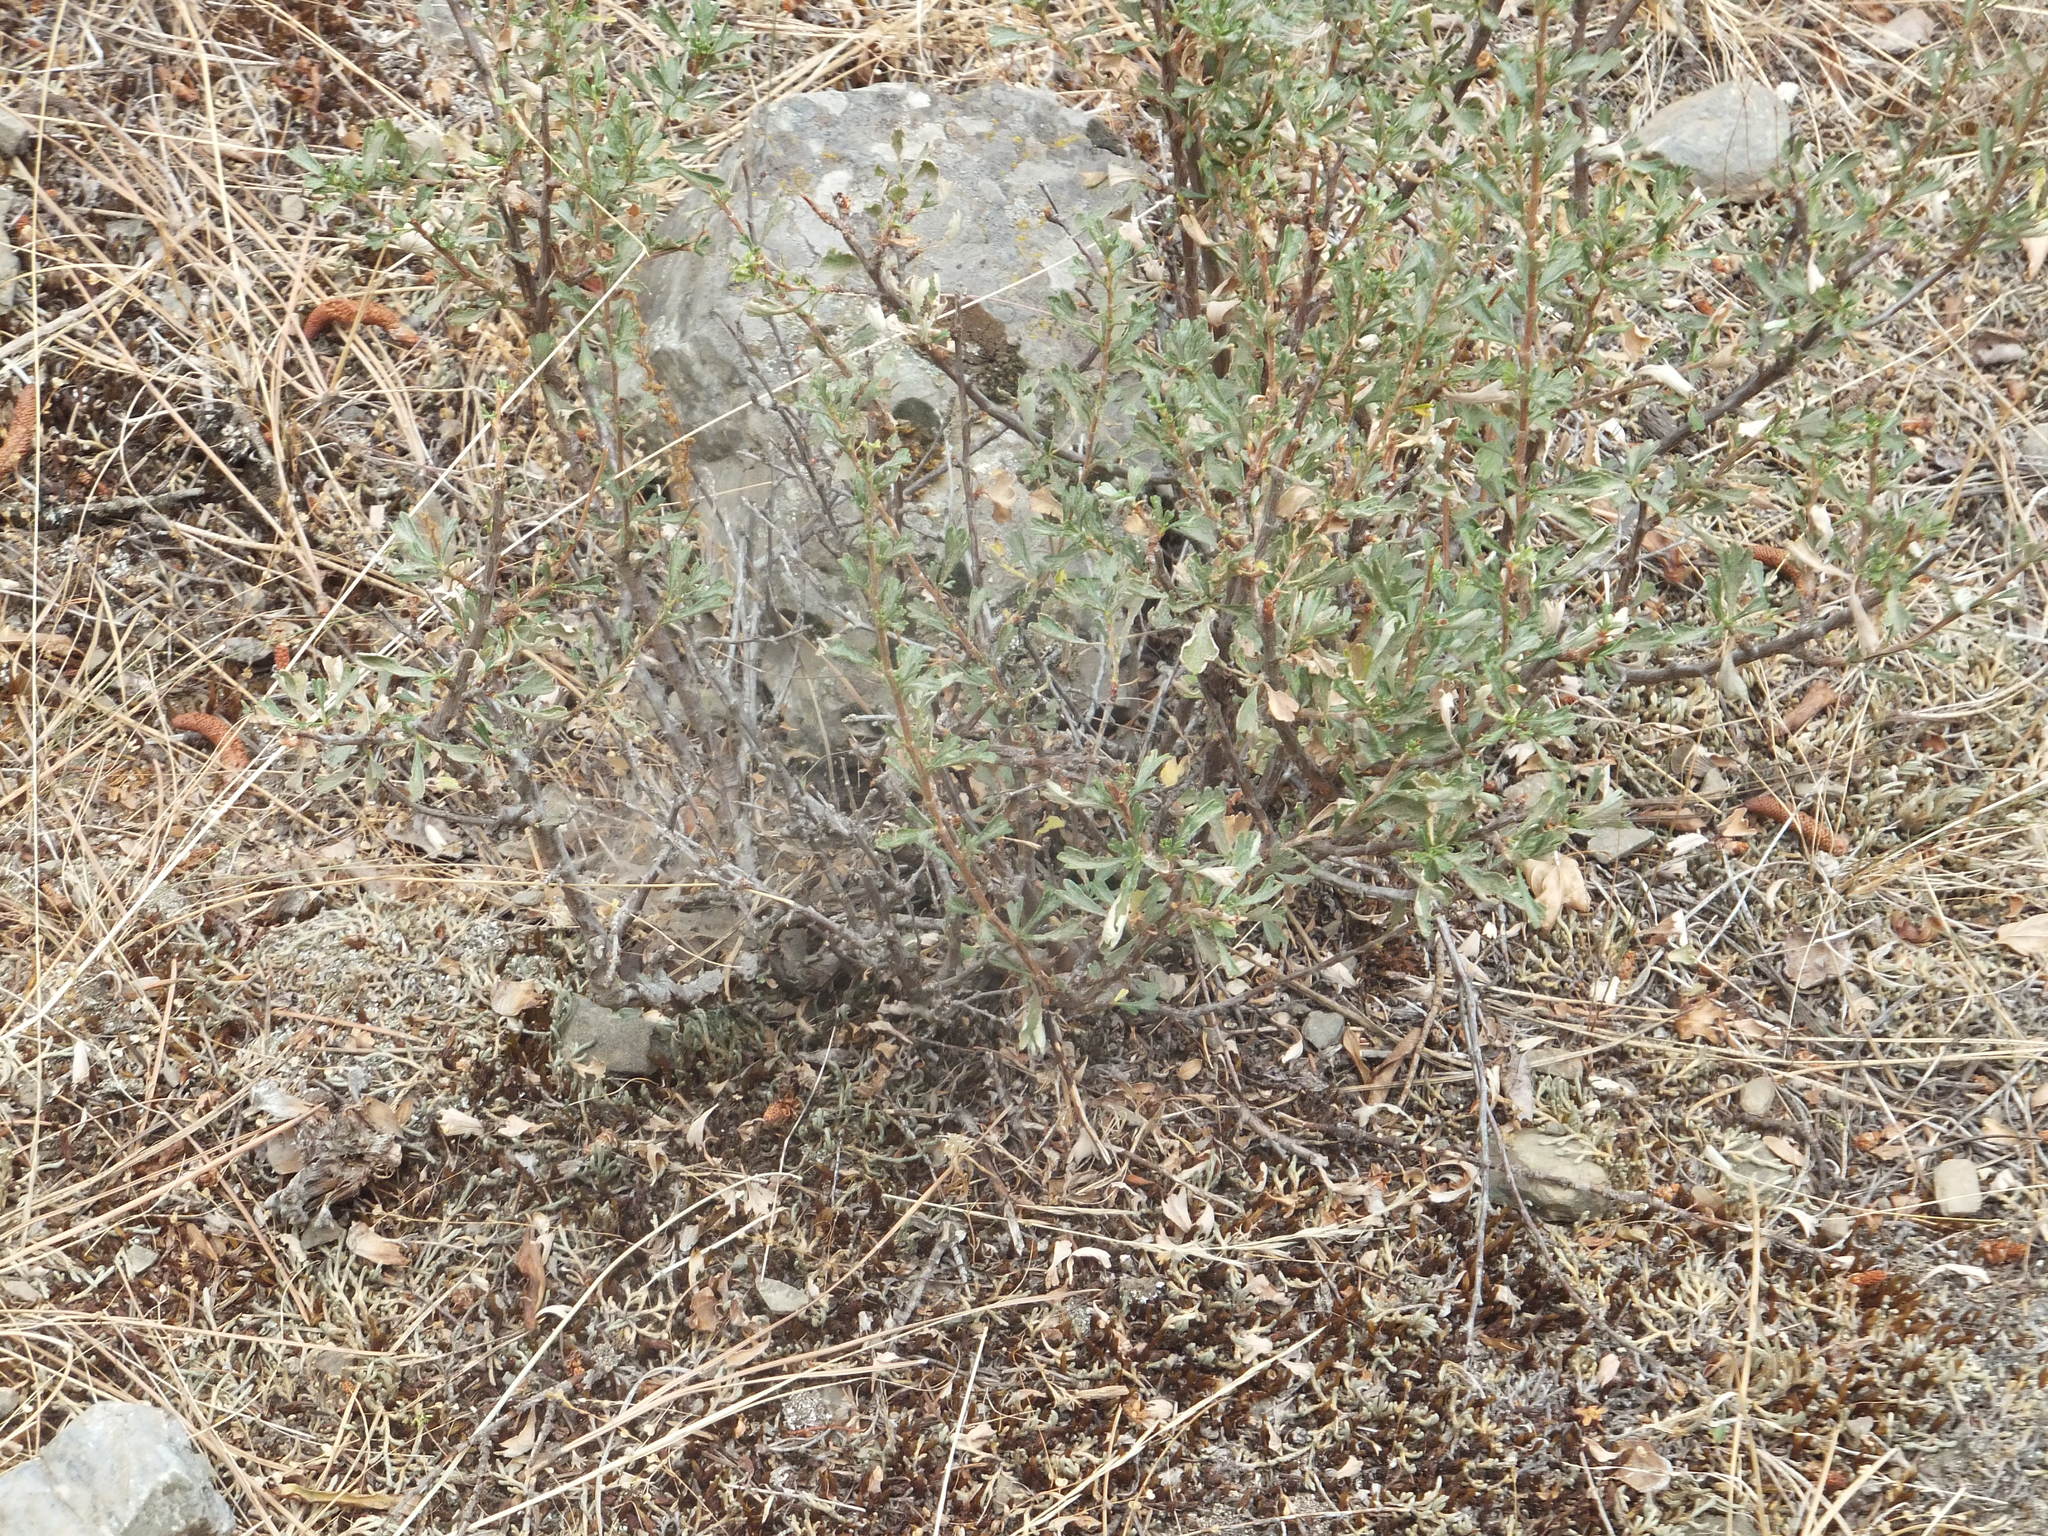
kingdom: Plantae
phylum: Tracheophyta
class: Magnoliopsida
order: Rosales
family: Rosaceae
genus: Purshia
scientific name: Purshia tridentata
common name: Antelope bitterbrush
